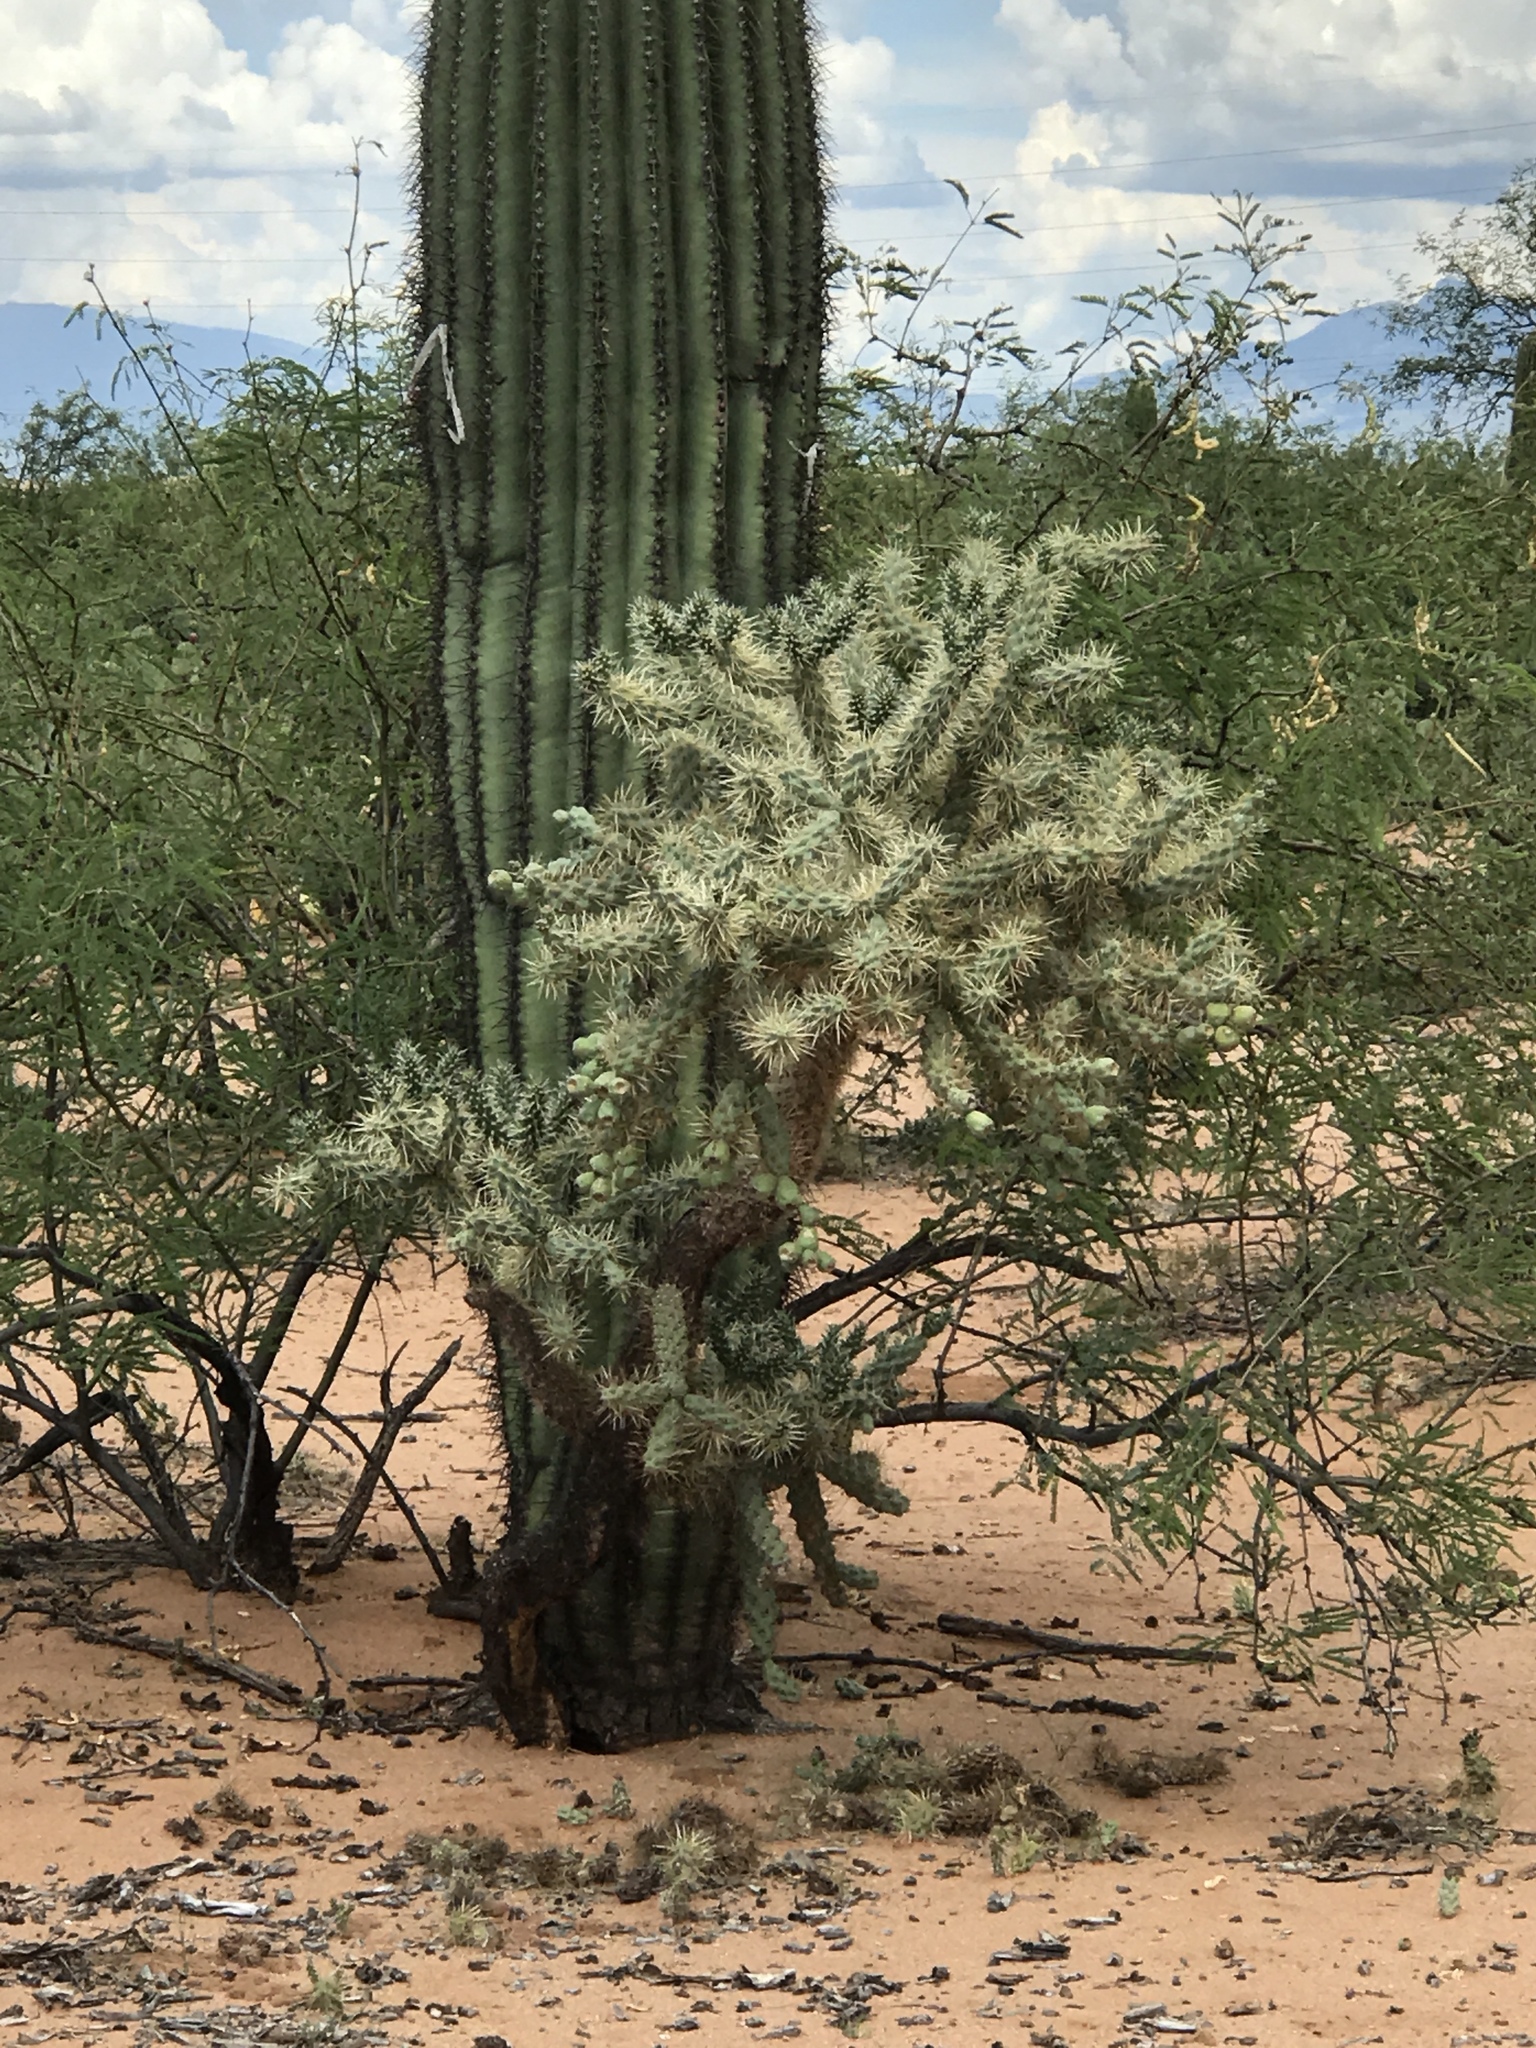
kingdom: Plantae
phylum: Tracheophyta
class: Magnoliopsida
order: Caryophyllales
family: Cactaceae
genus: Cylindropuntia
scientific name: Cylindropuntia fulgida
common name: Jumping cholla
